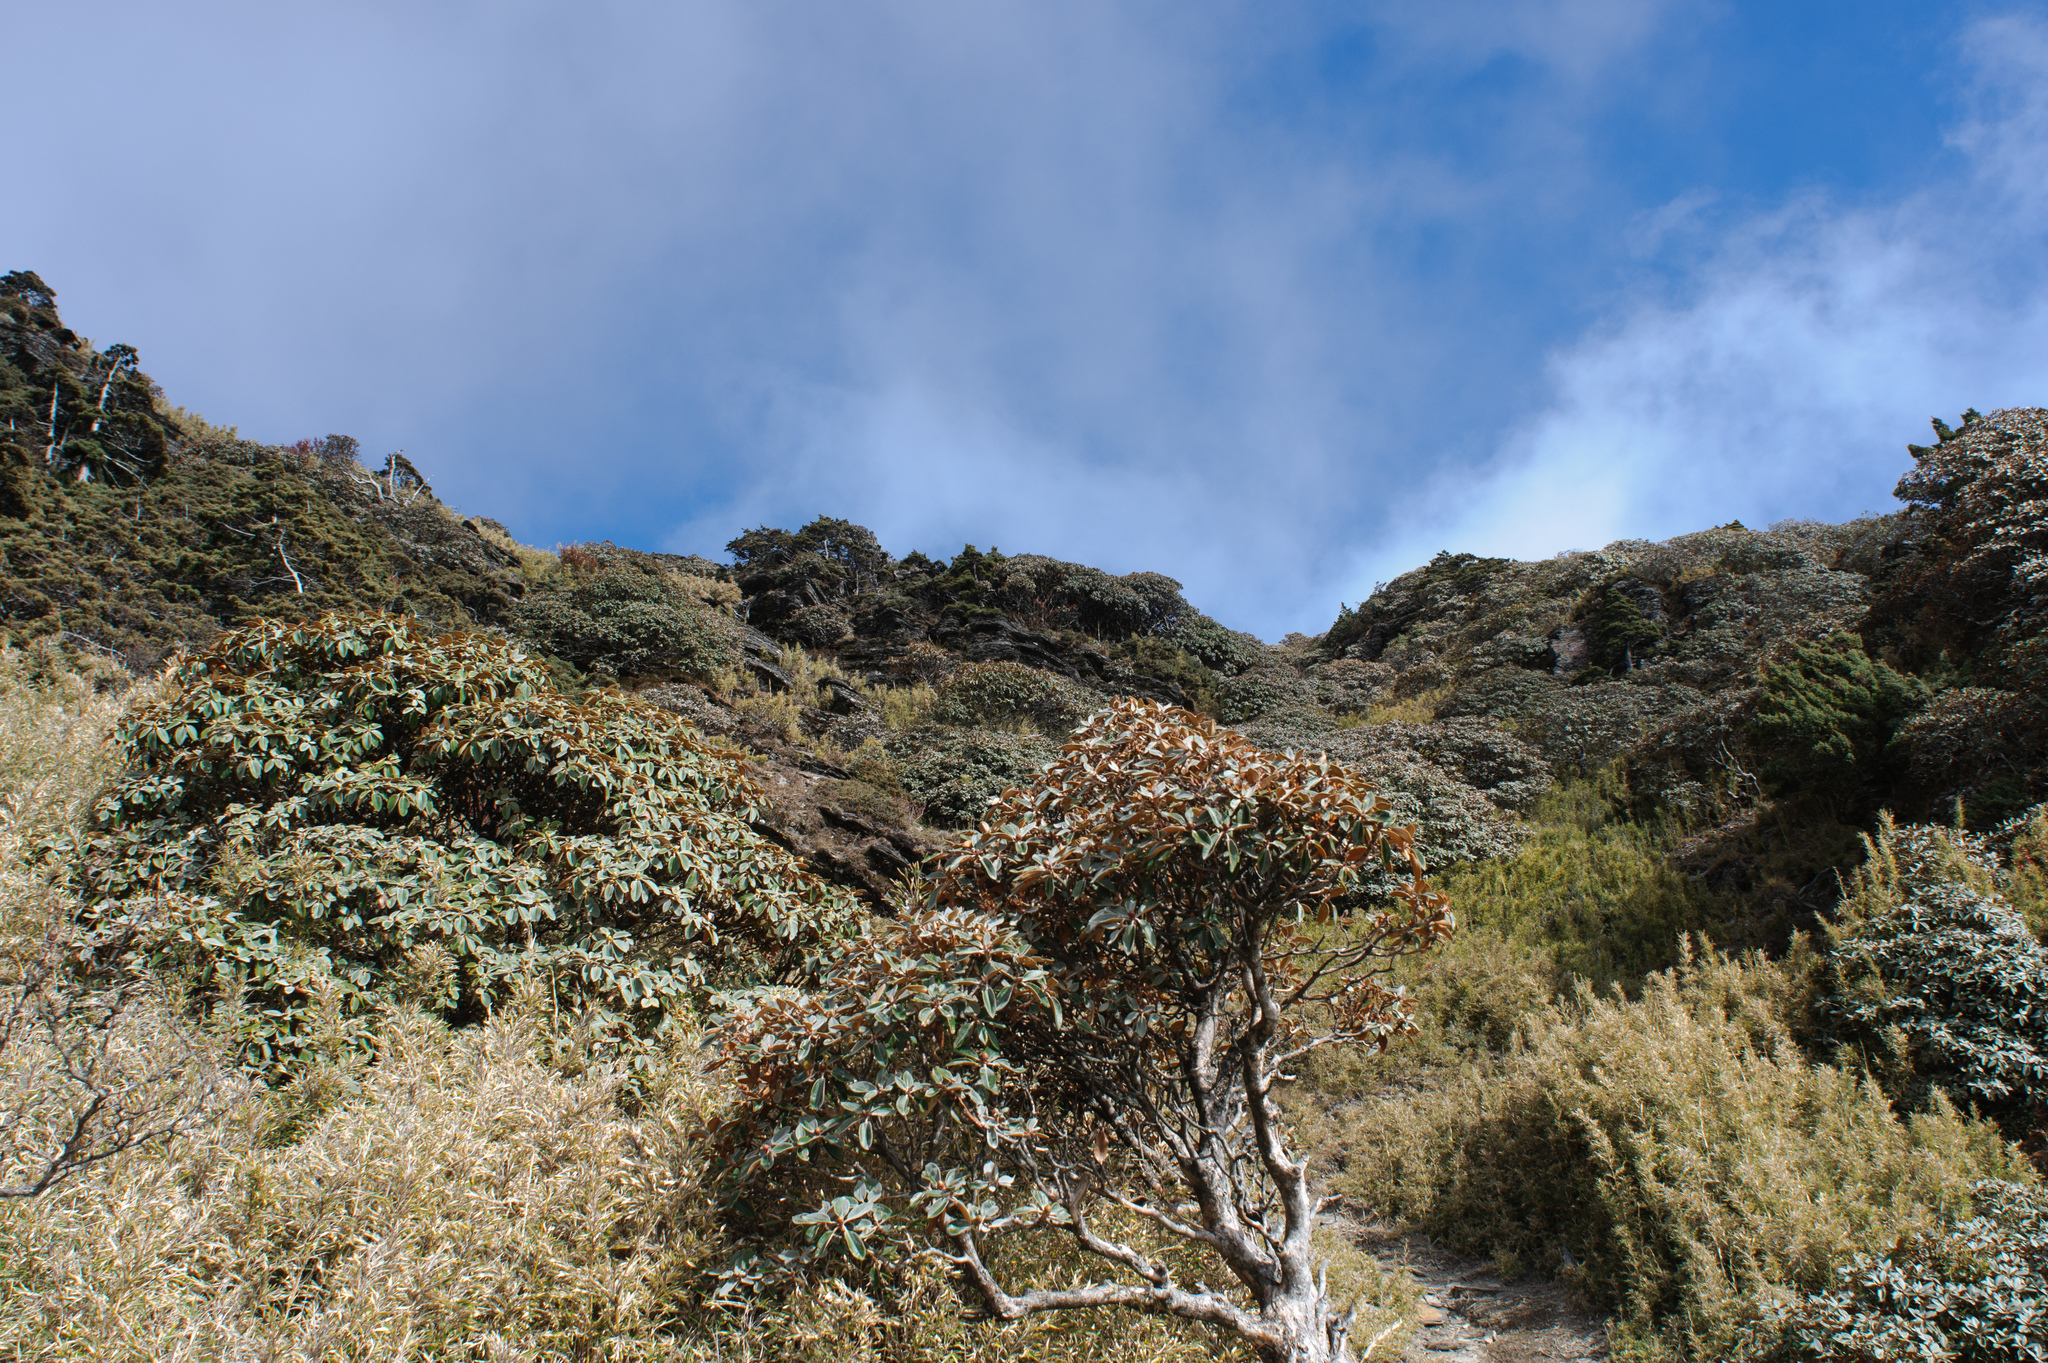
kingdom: Plantae
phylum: Tracheophyta
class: Magnoliopsida
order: Ericales
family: Ericaceae
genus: Rhododendron
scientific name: Rhododendron hyperythrum
